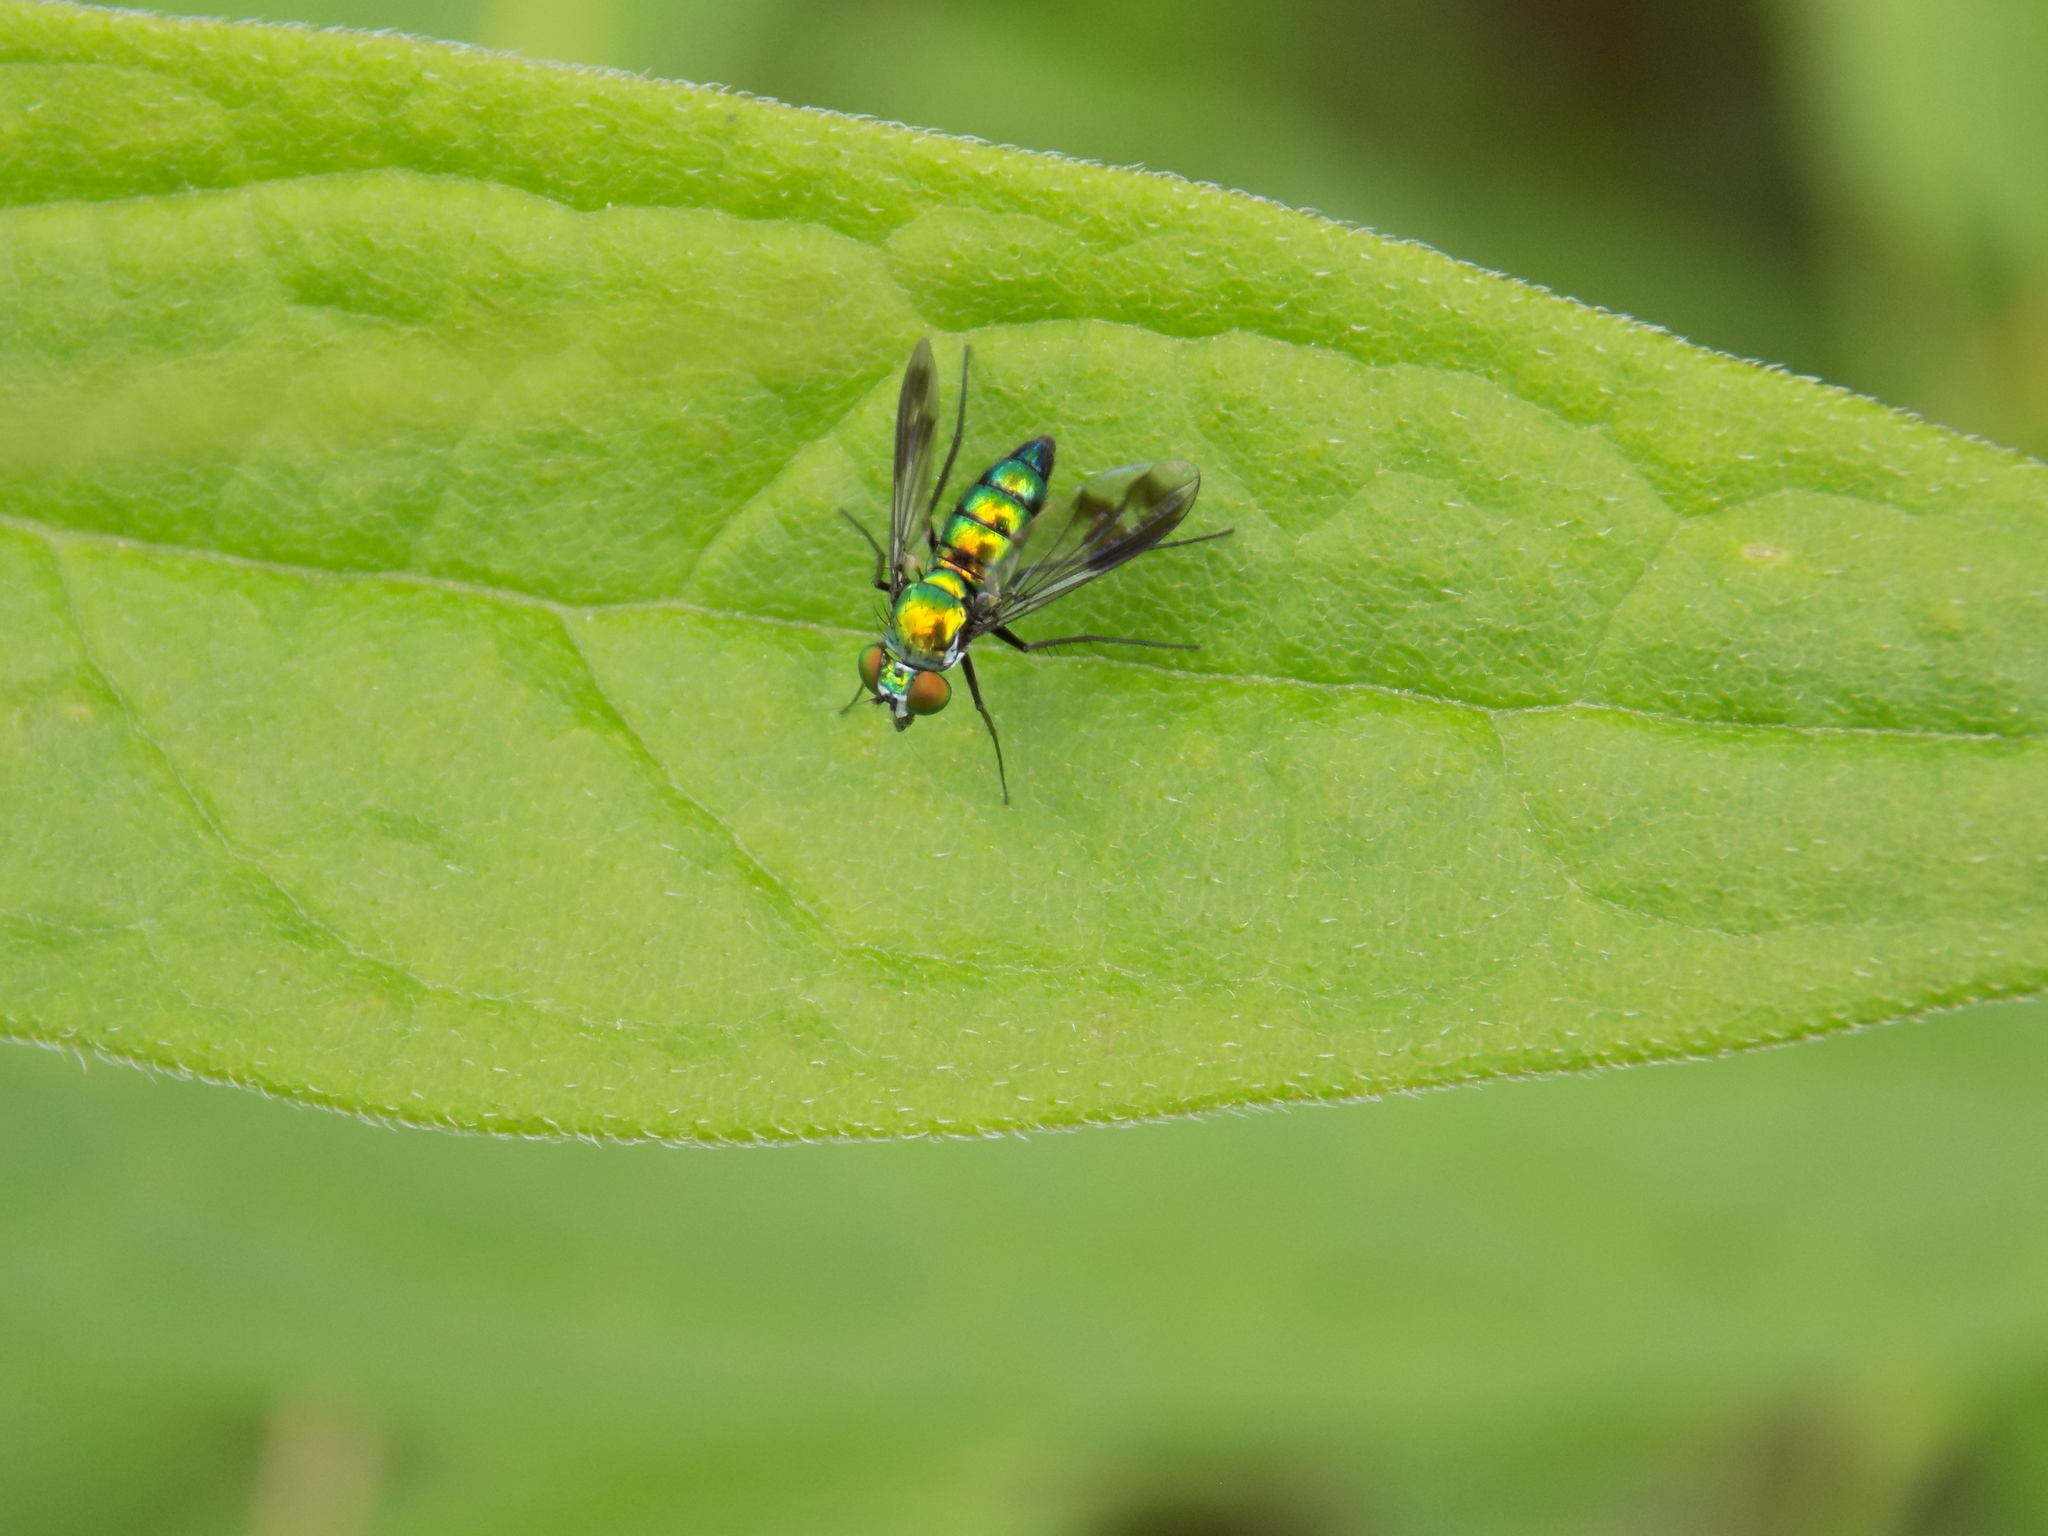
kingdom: Animalia
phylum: Arthropoda
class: Insecta
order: Diptera
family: Dolichopodidae
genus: Condylostylus
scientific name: Condylostylus patibulatus
